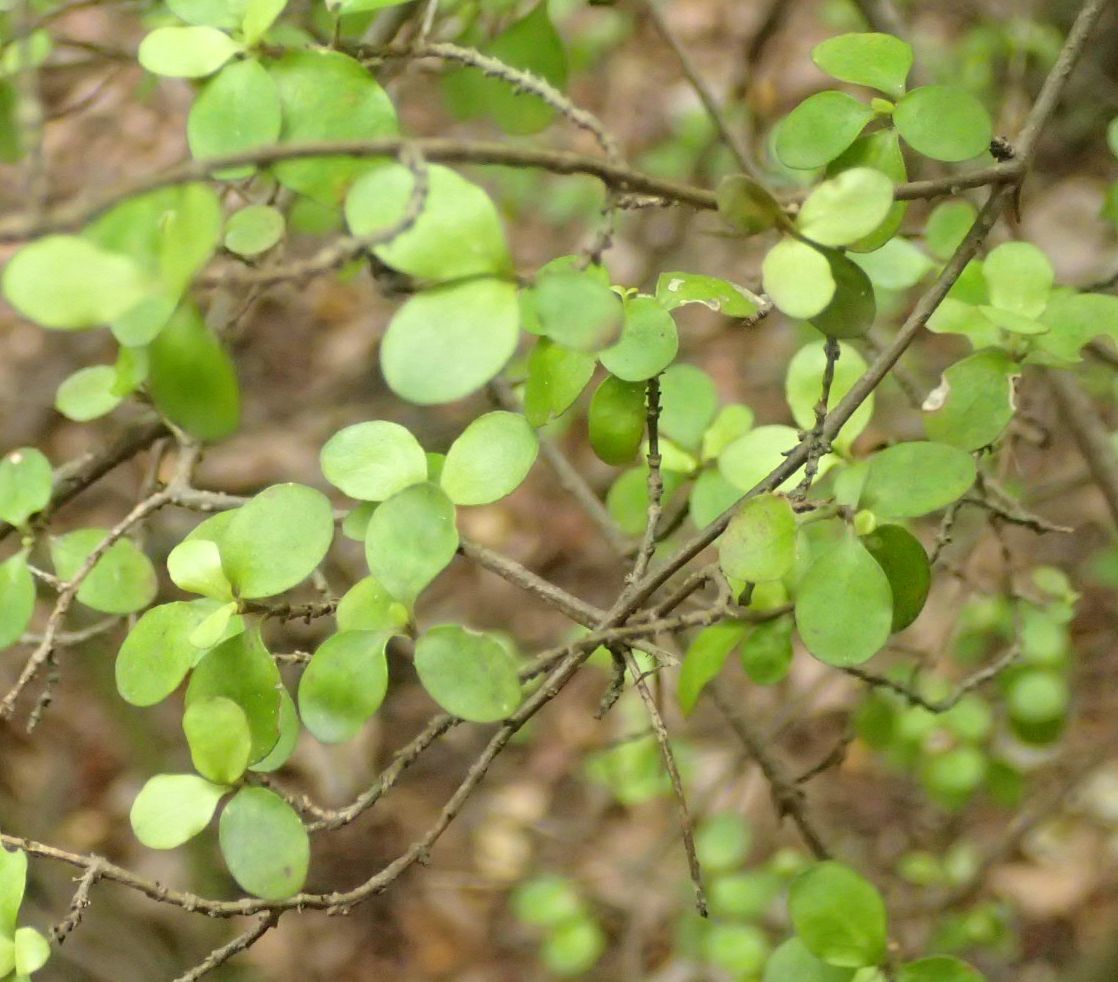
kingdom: Plantae
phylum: Tracheophyta
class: Magnoliopsida
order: Gentianales
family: Rubiaceae
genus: Coprosma
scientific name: Coprosma rhamnoides
